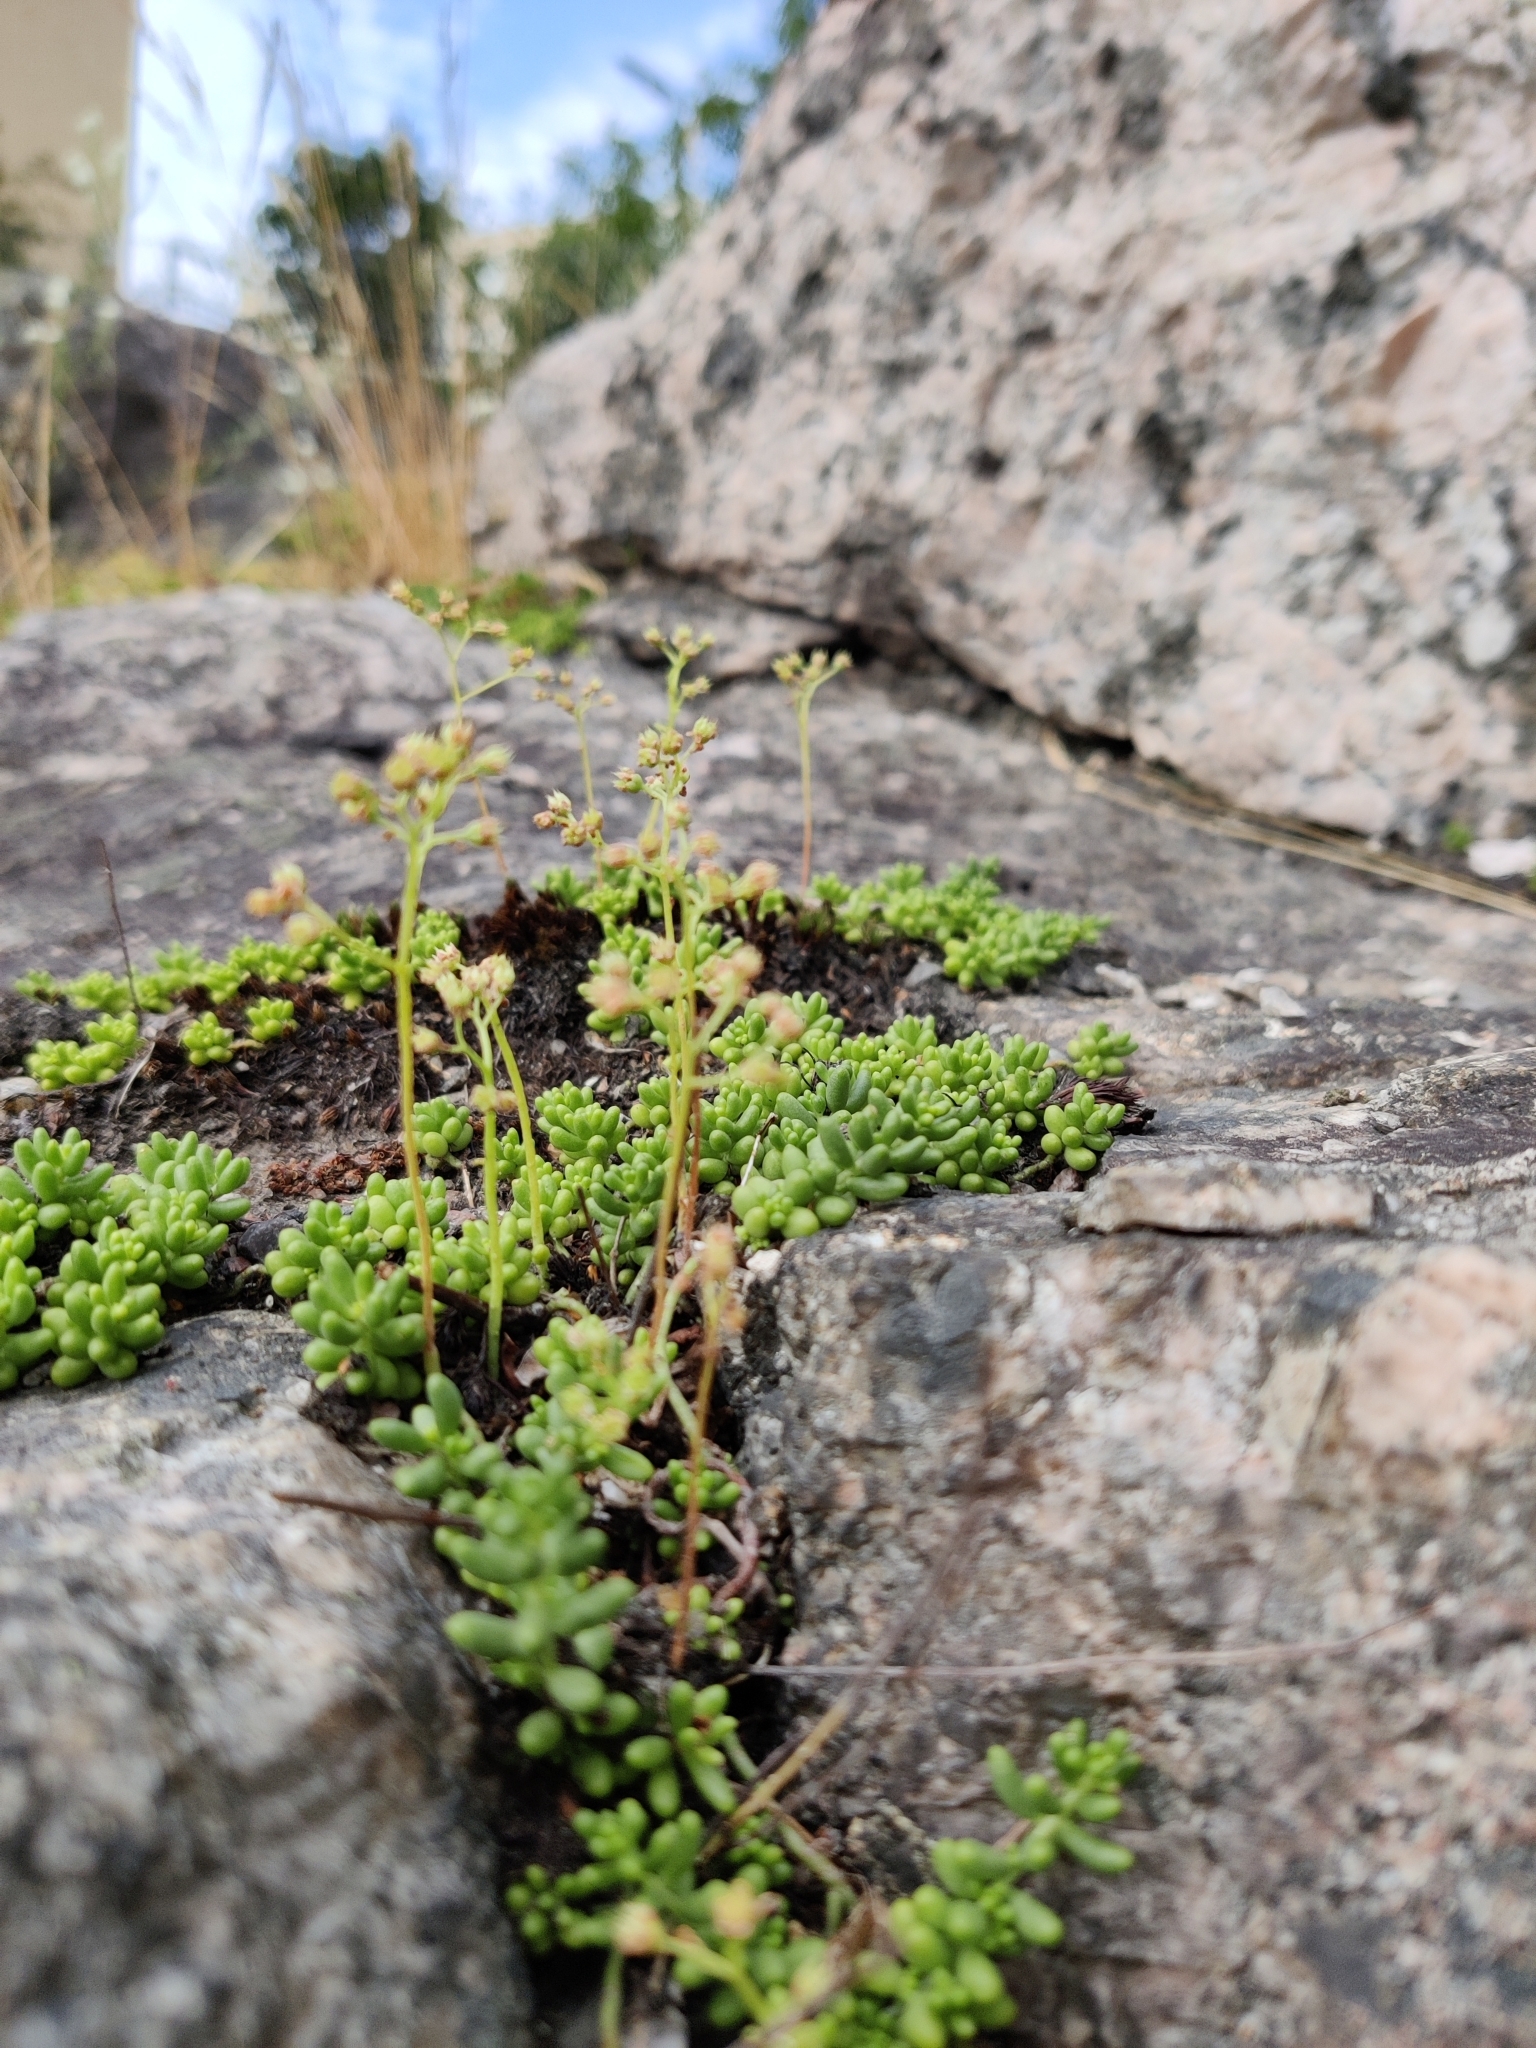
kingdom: Plantae
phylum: Tracheophyta
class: Magnoliopsida
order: Saxifragales
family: Crassulaceae
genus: Sedum
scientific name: Sedum album
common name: White stonecrop
